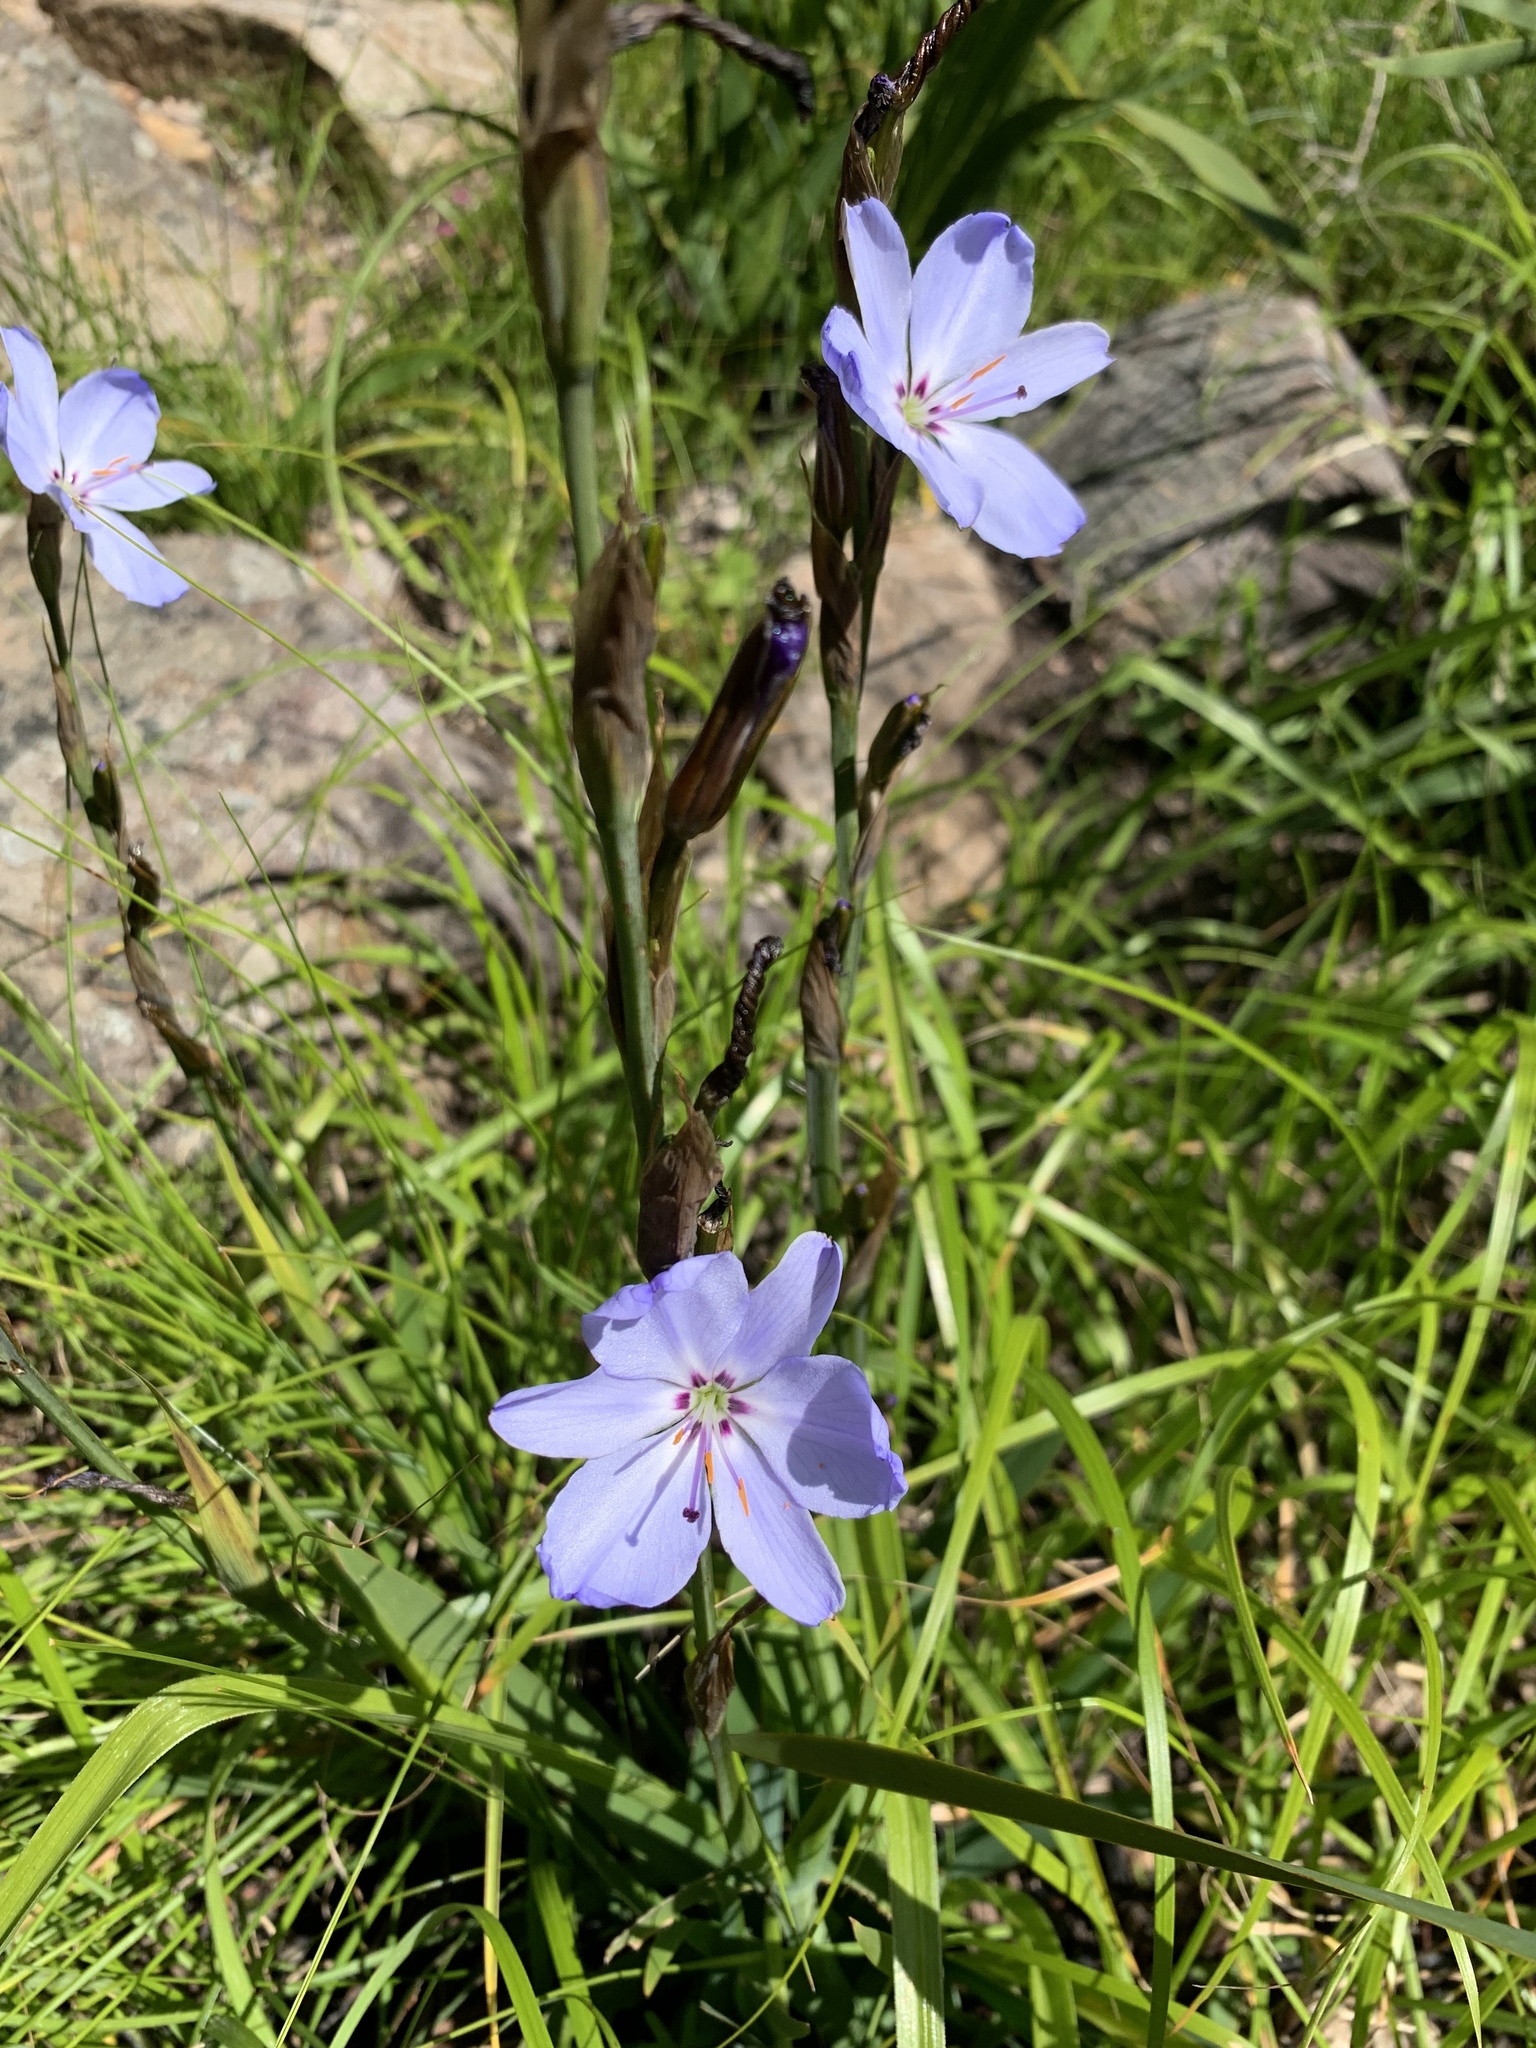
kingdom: Plantae
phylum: Tracheophyta
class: Liliopsida
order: Asparagales
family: Iridaceae
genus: Aristea
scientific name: Aristea spiralis
